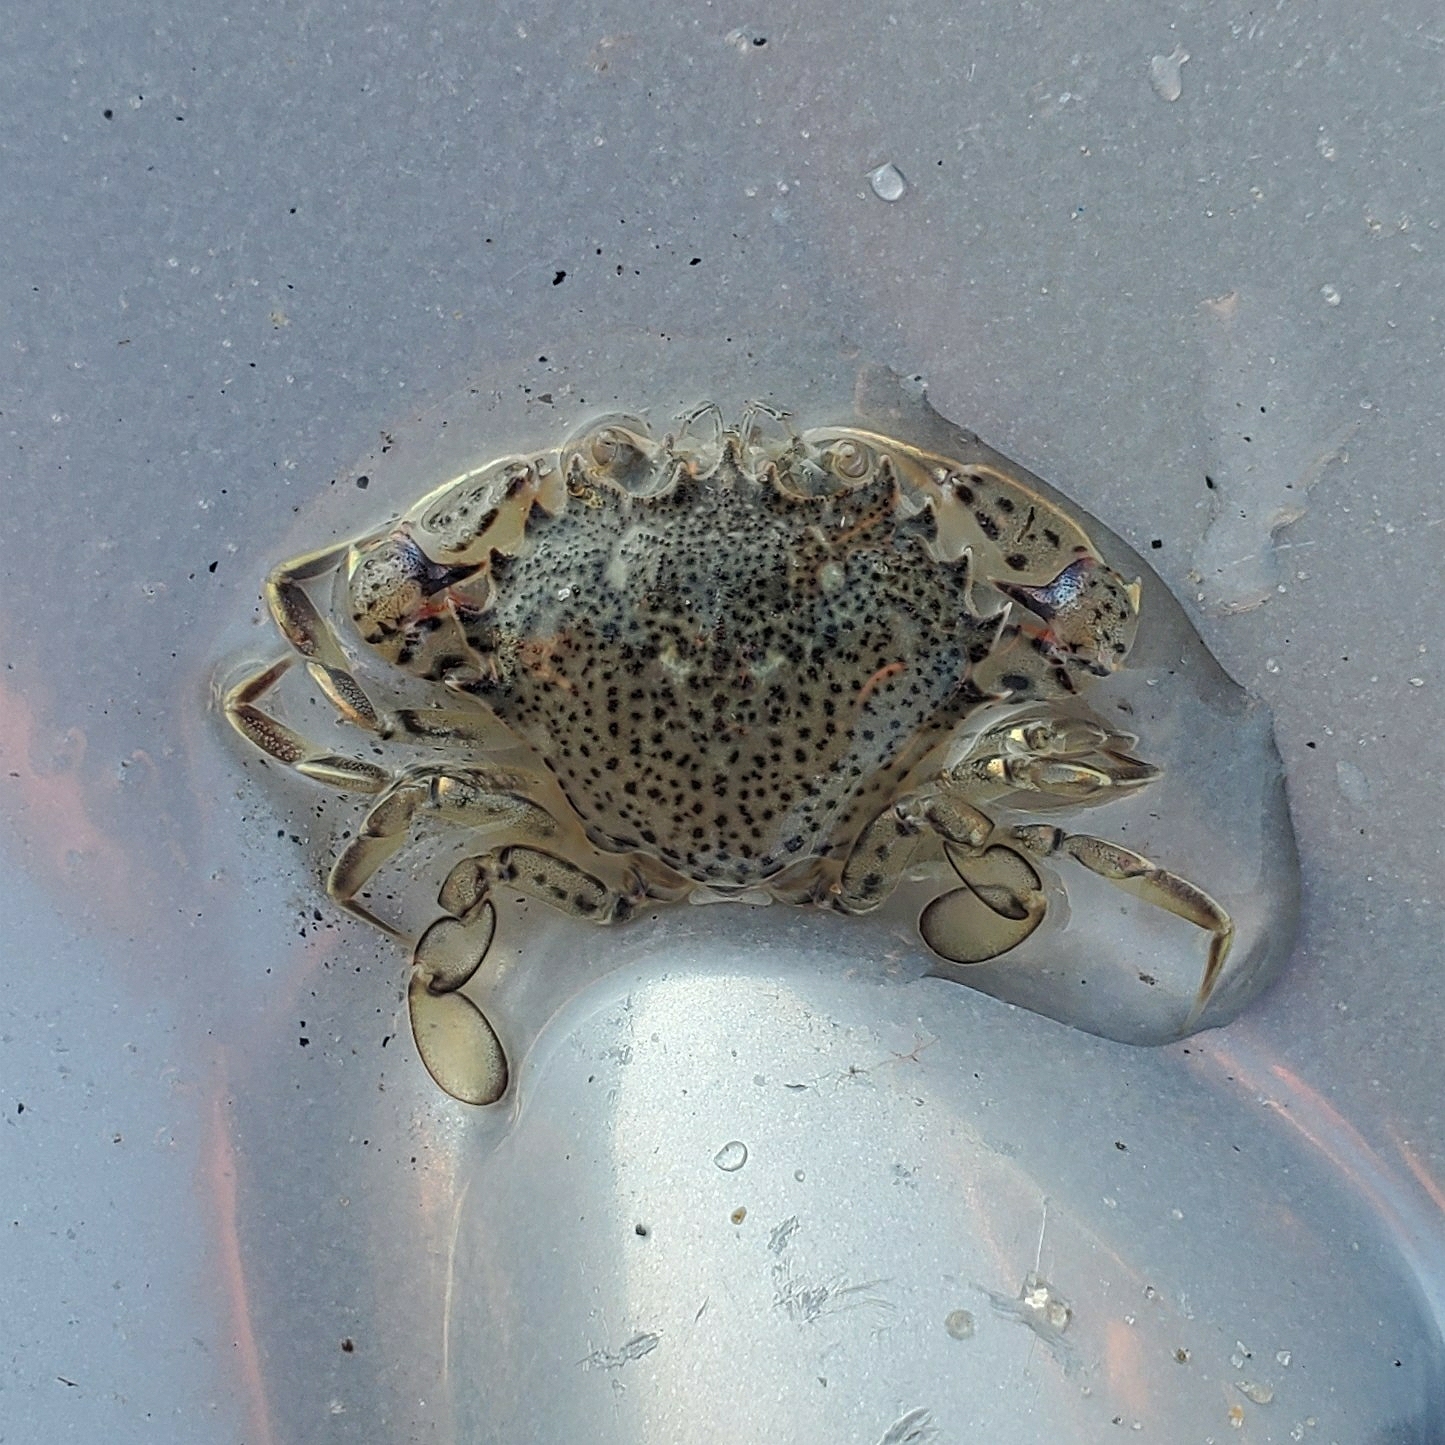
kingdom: Animalia
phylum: Arthropoda
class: Malacostraca
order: Decapoda
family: Ovalipidae
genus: Ovalipes
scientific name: Ovalipes ocellatus
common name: Lady crab
